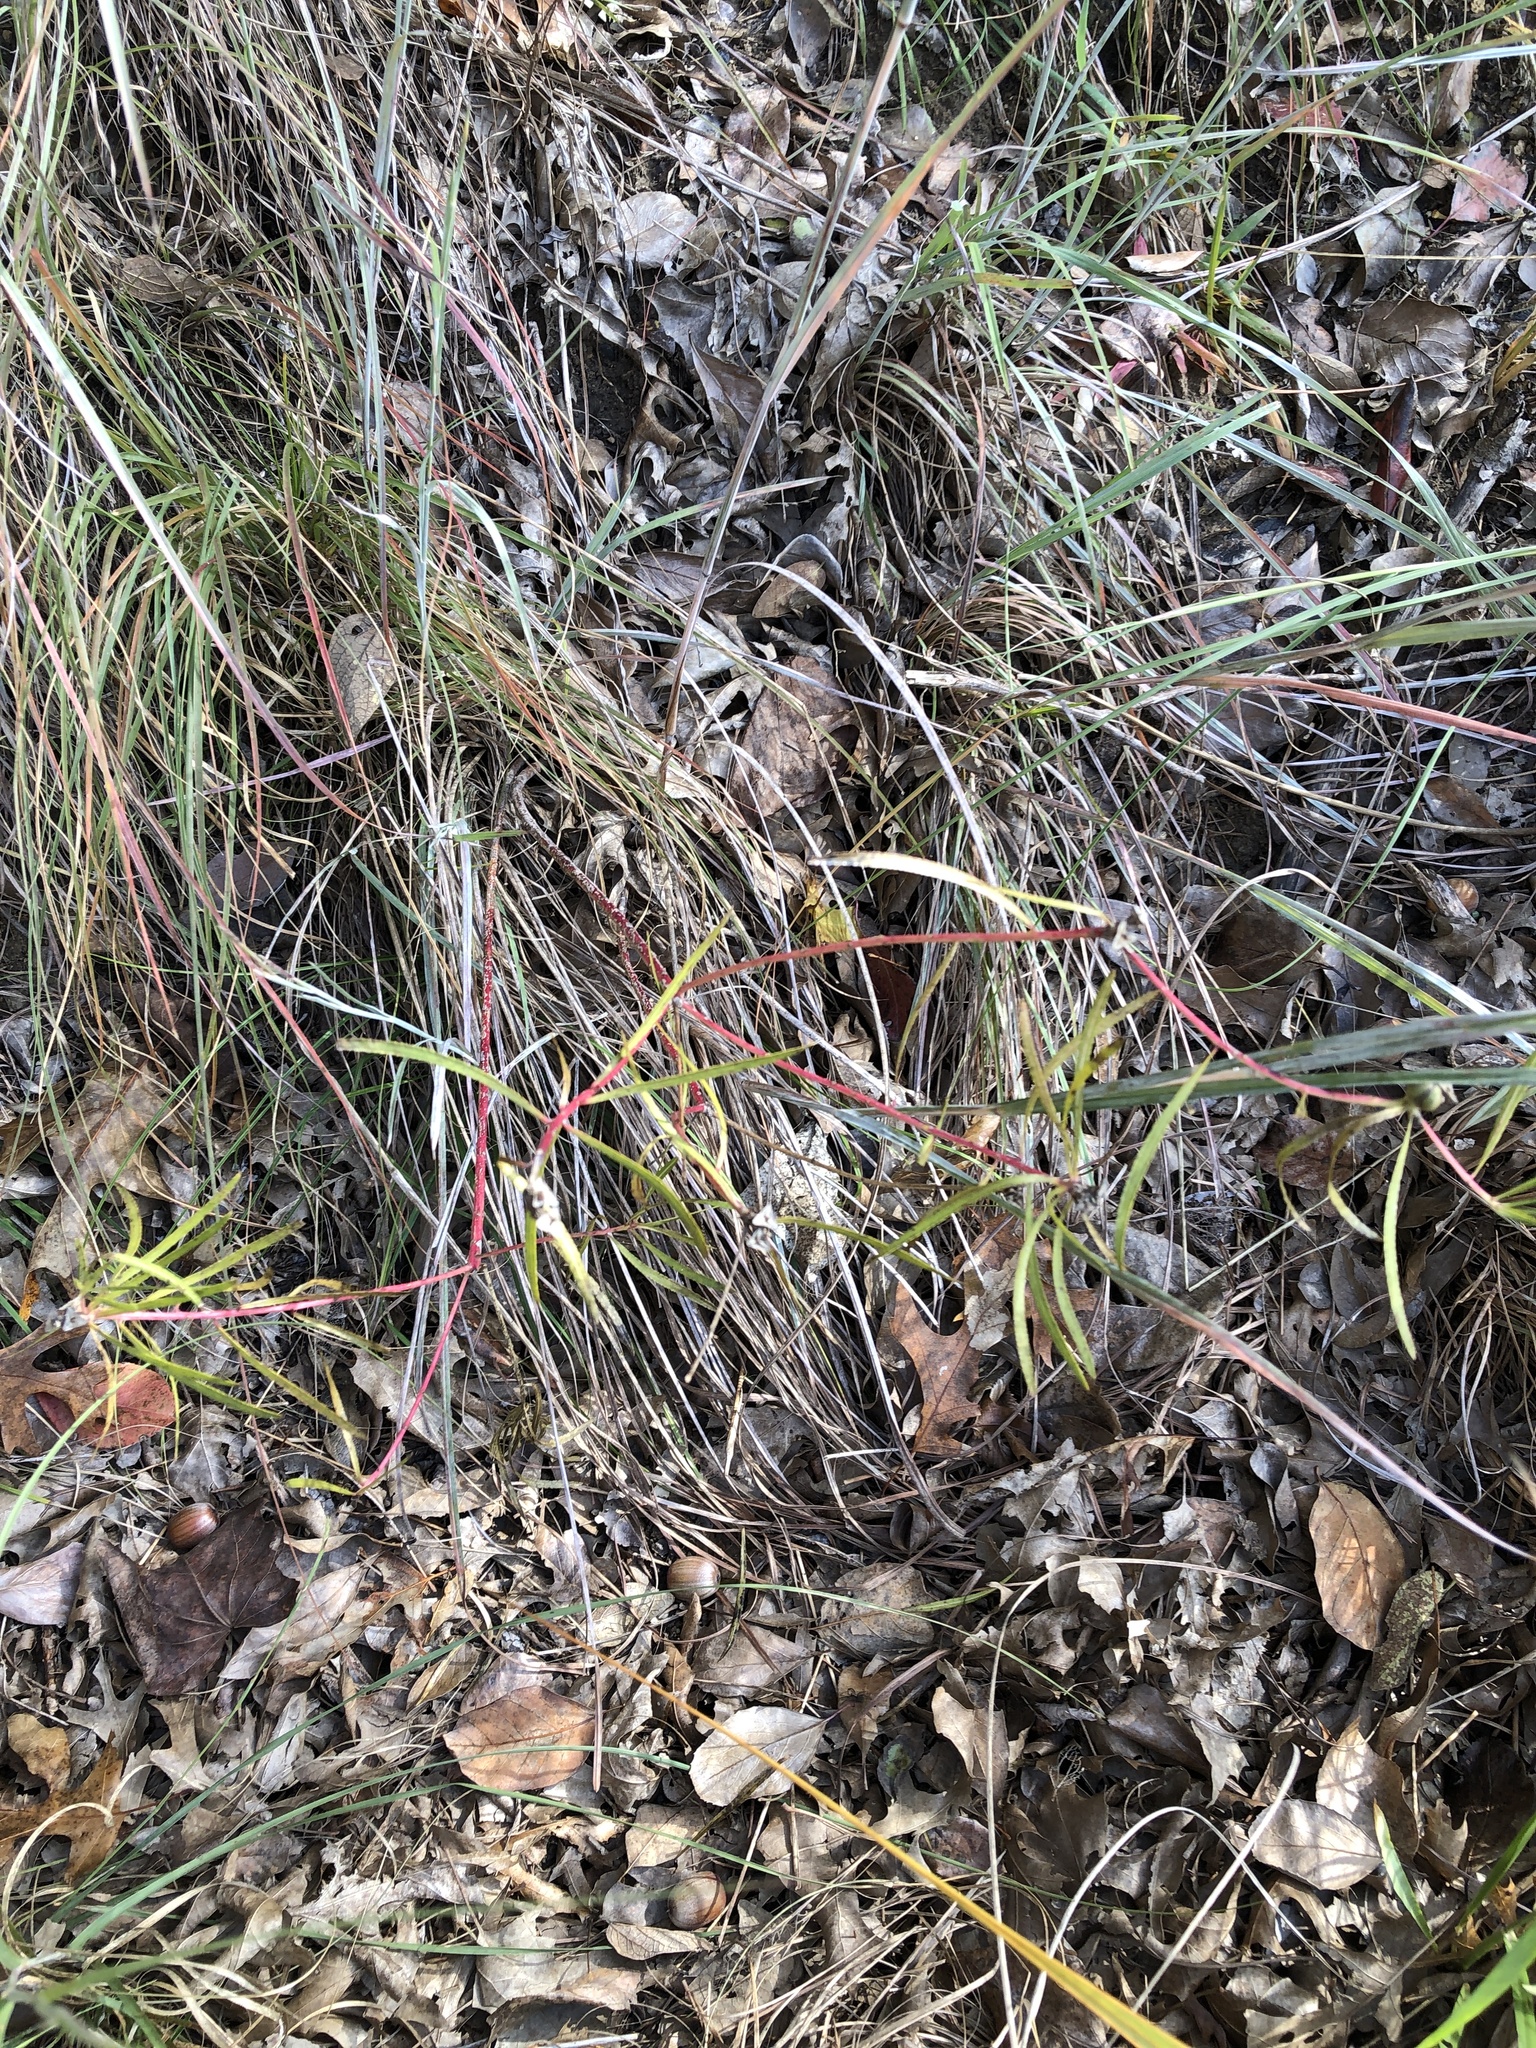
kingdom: Plantae
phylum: Tracheophyta
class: Magnoliopsida
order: Malpighiales
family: Euphorbiaceae
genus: Stillingia
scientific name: Stillingia texana
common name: Texas stillingia
